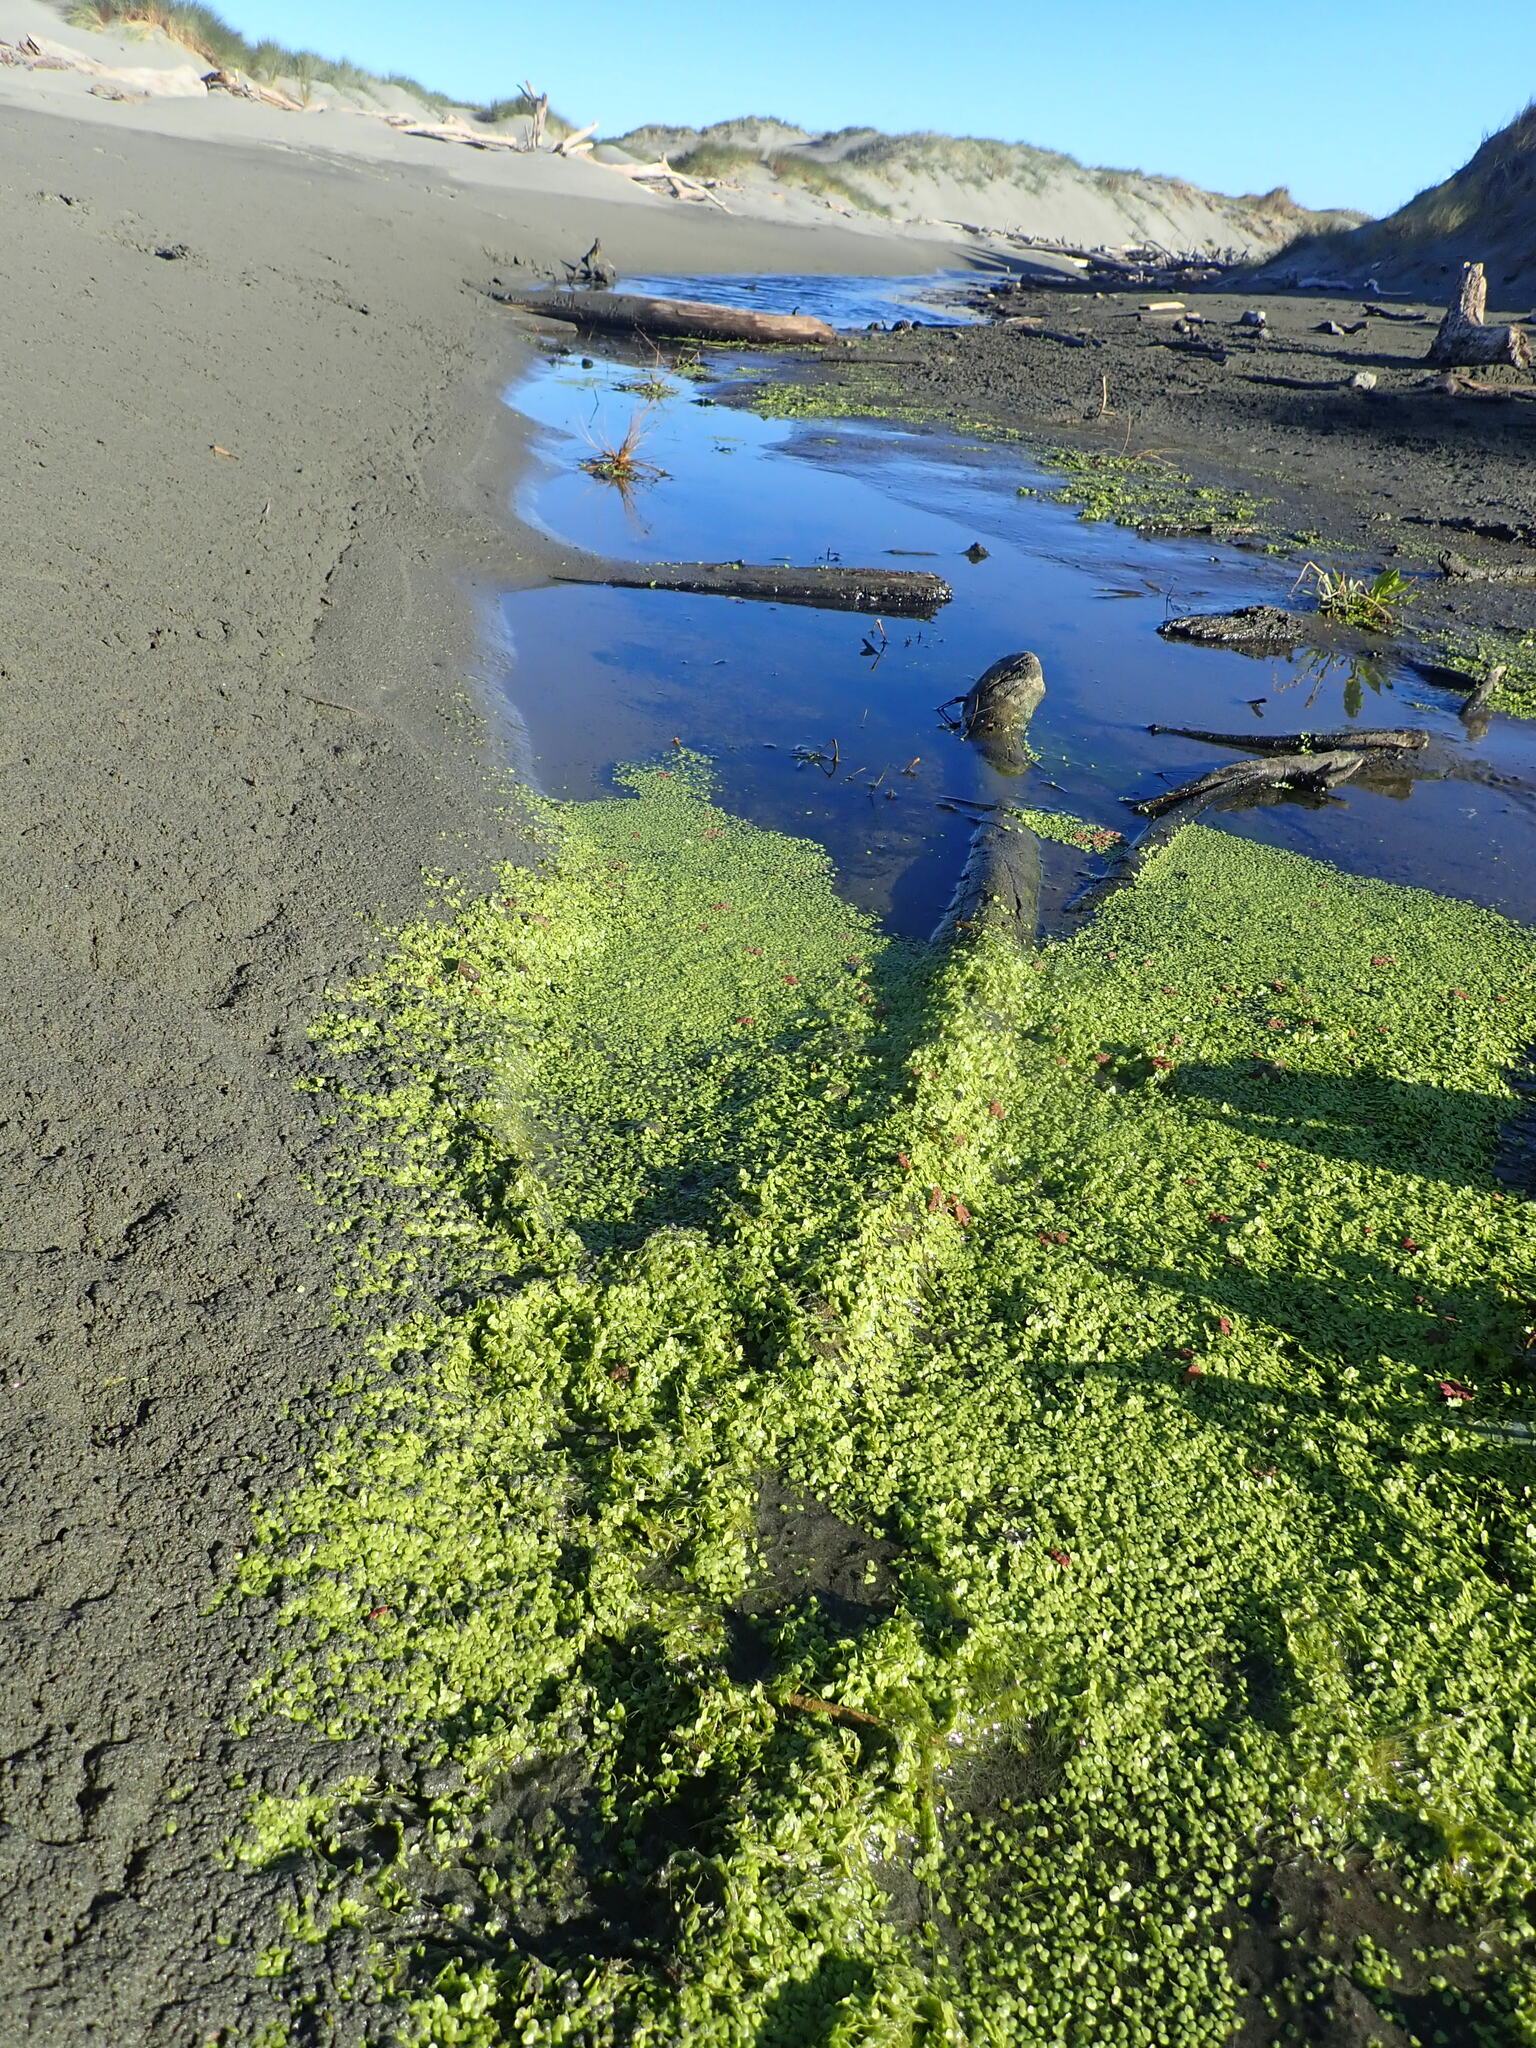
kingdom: Plantae
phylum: Tracheophyta
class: Polypodiopsida
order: Salviniales
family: Salviniaceae
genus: Azolla
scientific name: Azolla rubra
